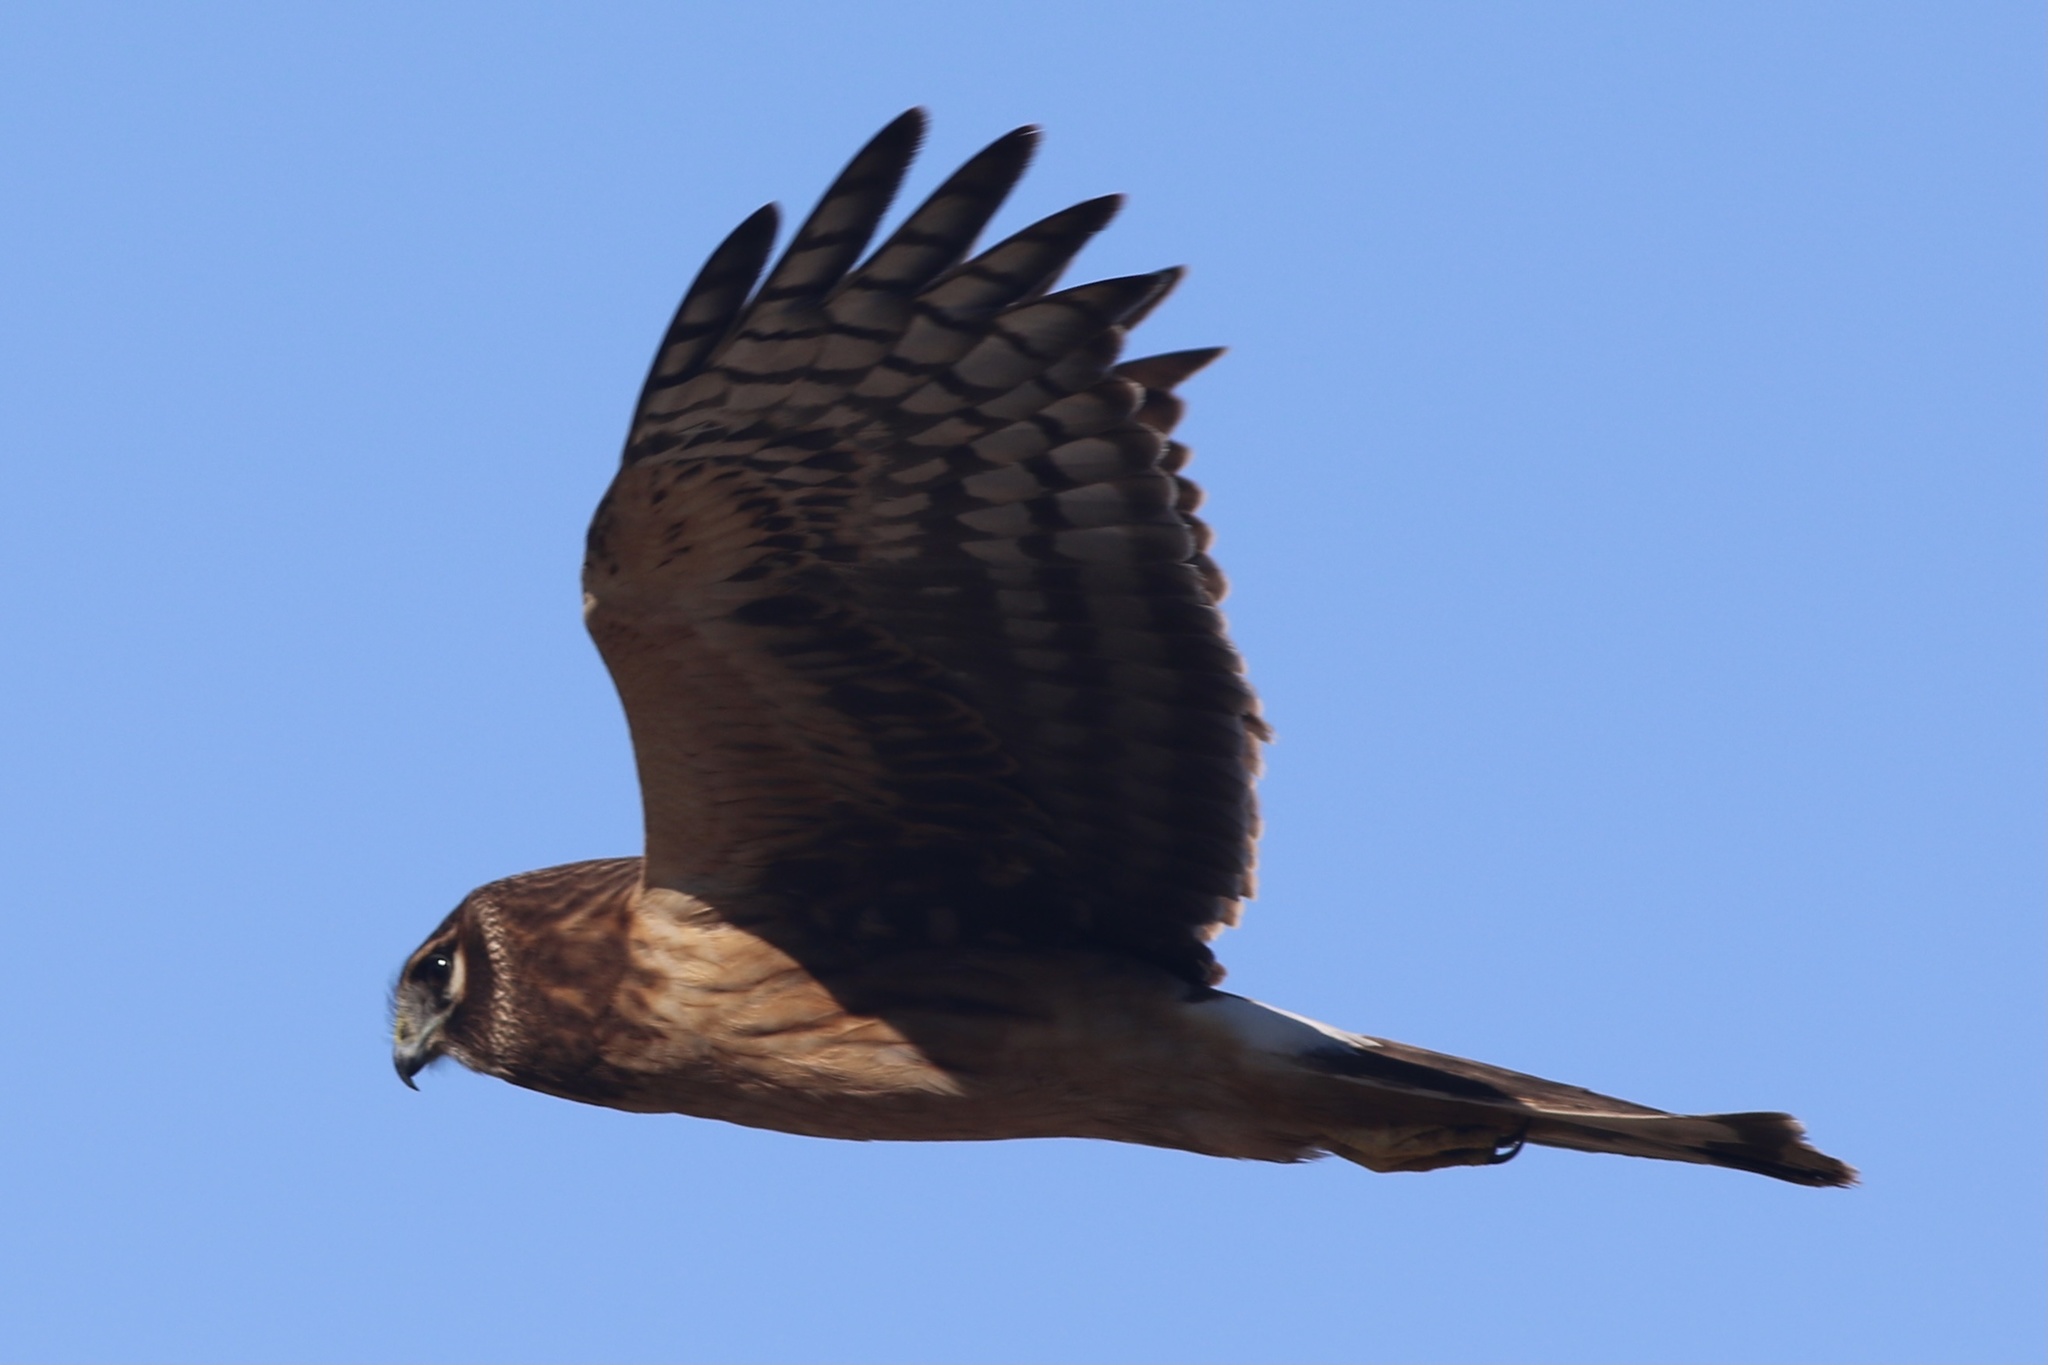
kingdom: Animalia
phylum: Chordata
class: Aves
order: Accipitriformes
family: Accipitridae
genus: Circus
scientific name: Circus cyaneus
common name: Hen harrier
